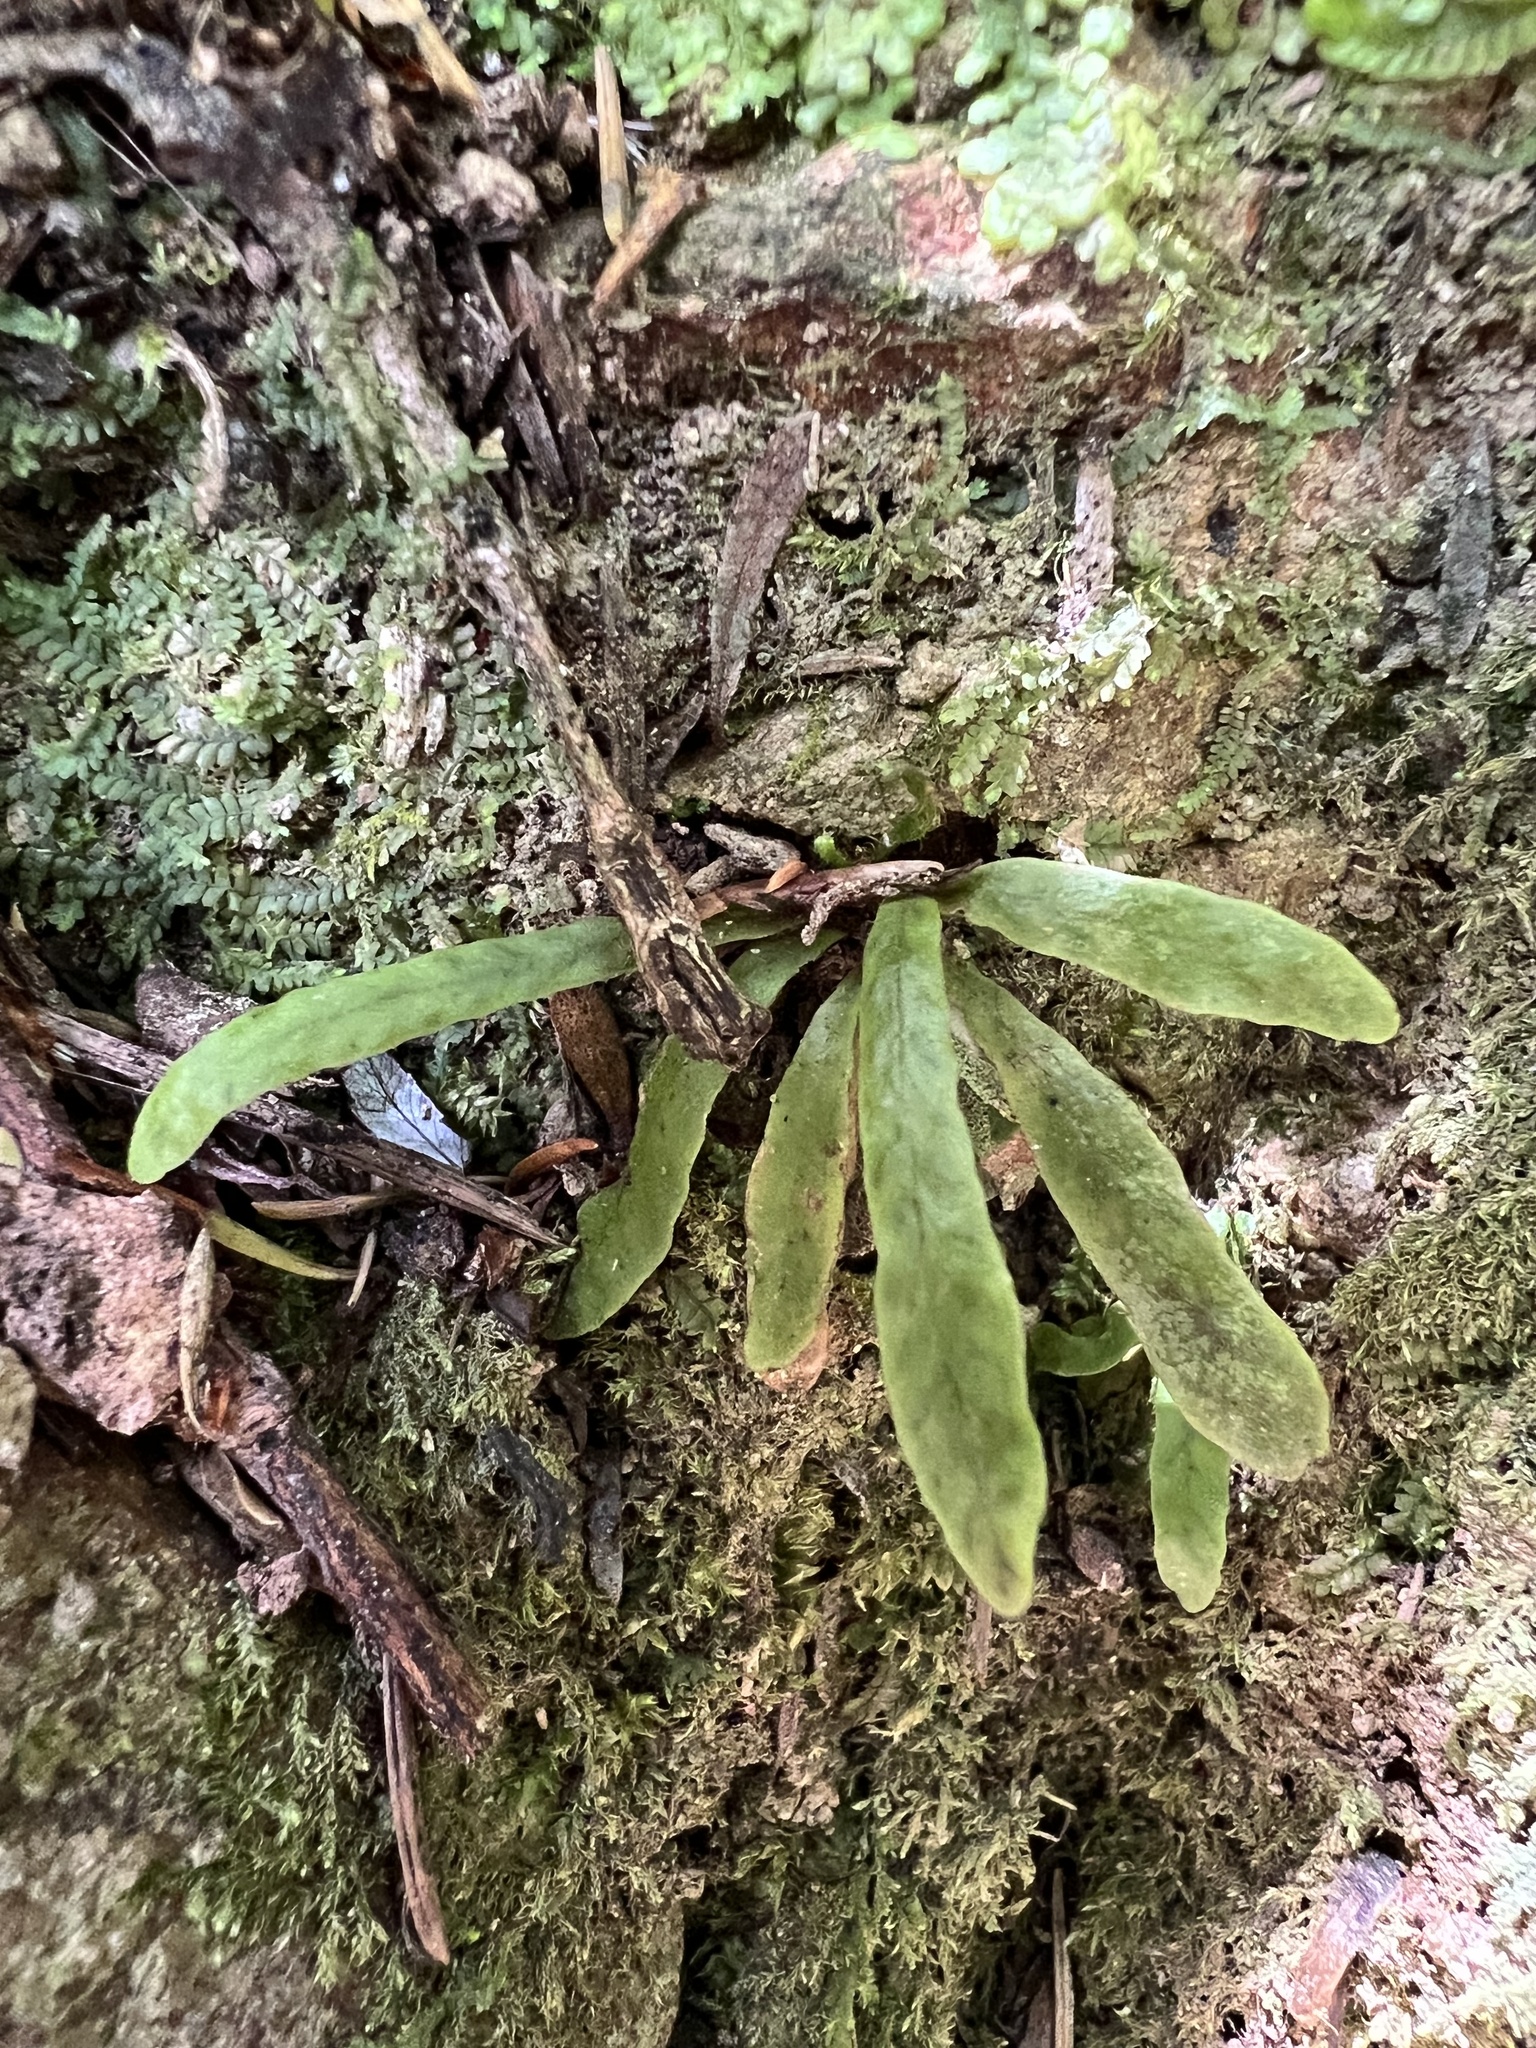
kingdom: Plantae
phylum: Tracheophyta
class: Polypodiopsida
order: Polypodiales
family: Polypodiaceae
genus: Notogrammitis
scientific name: Notogrammitis ciliata
